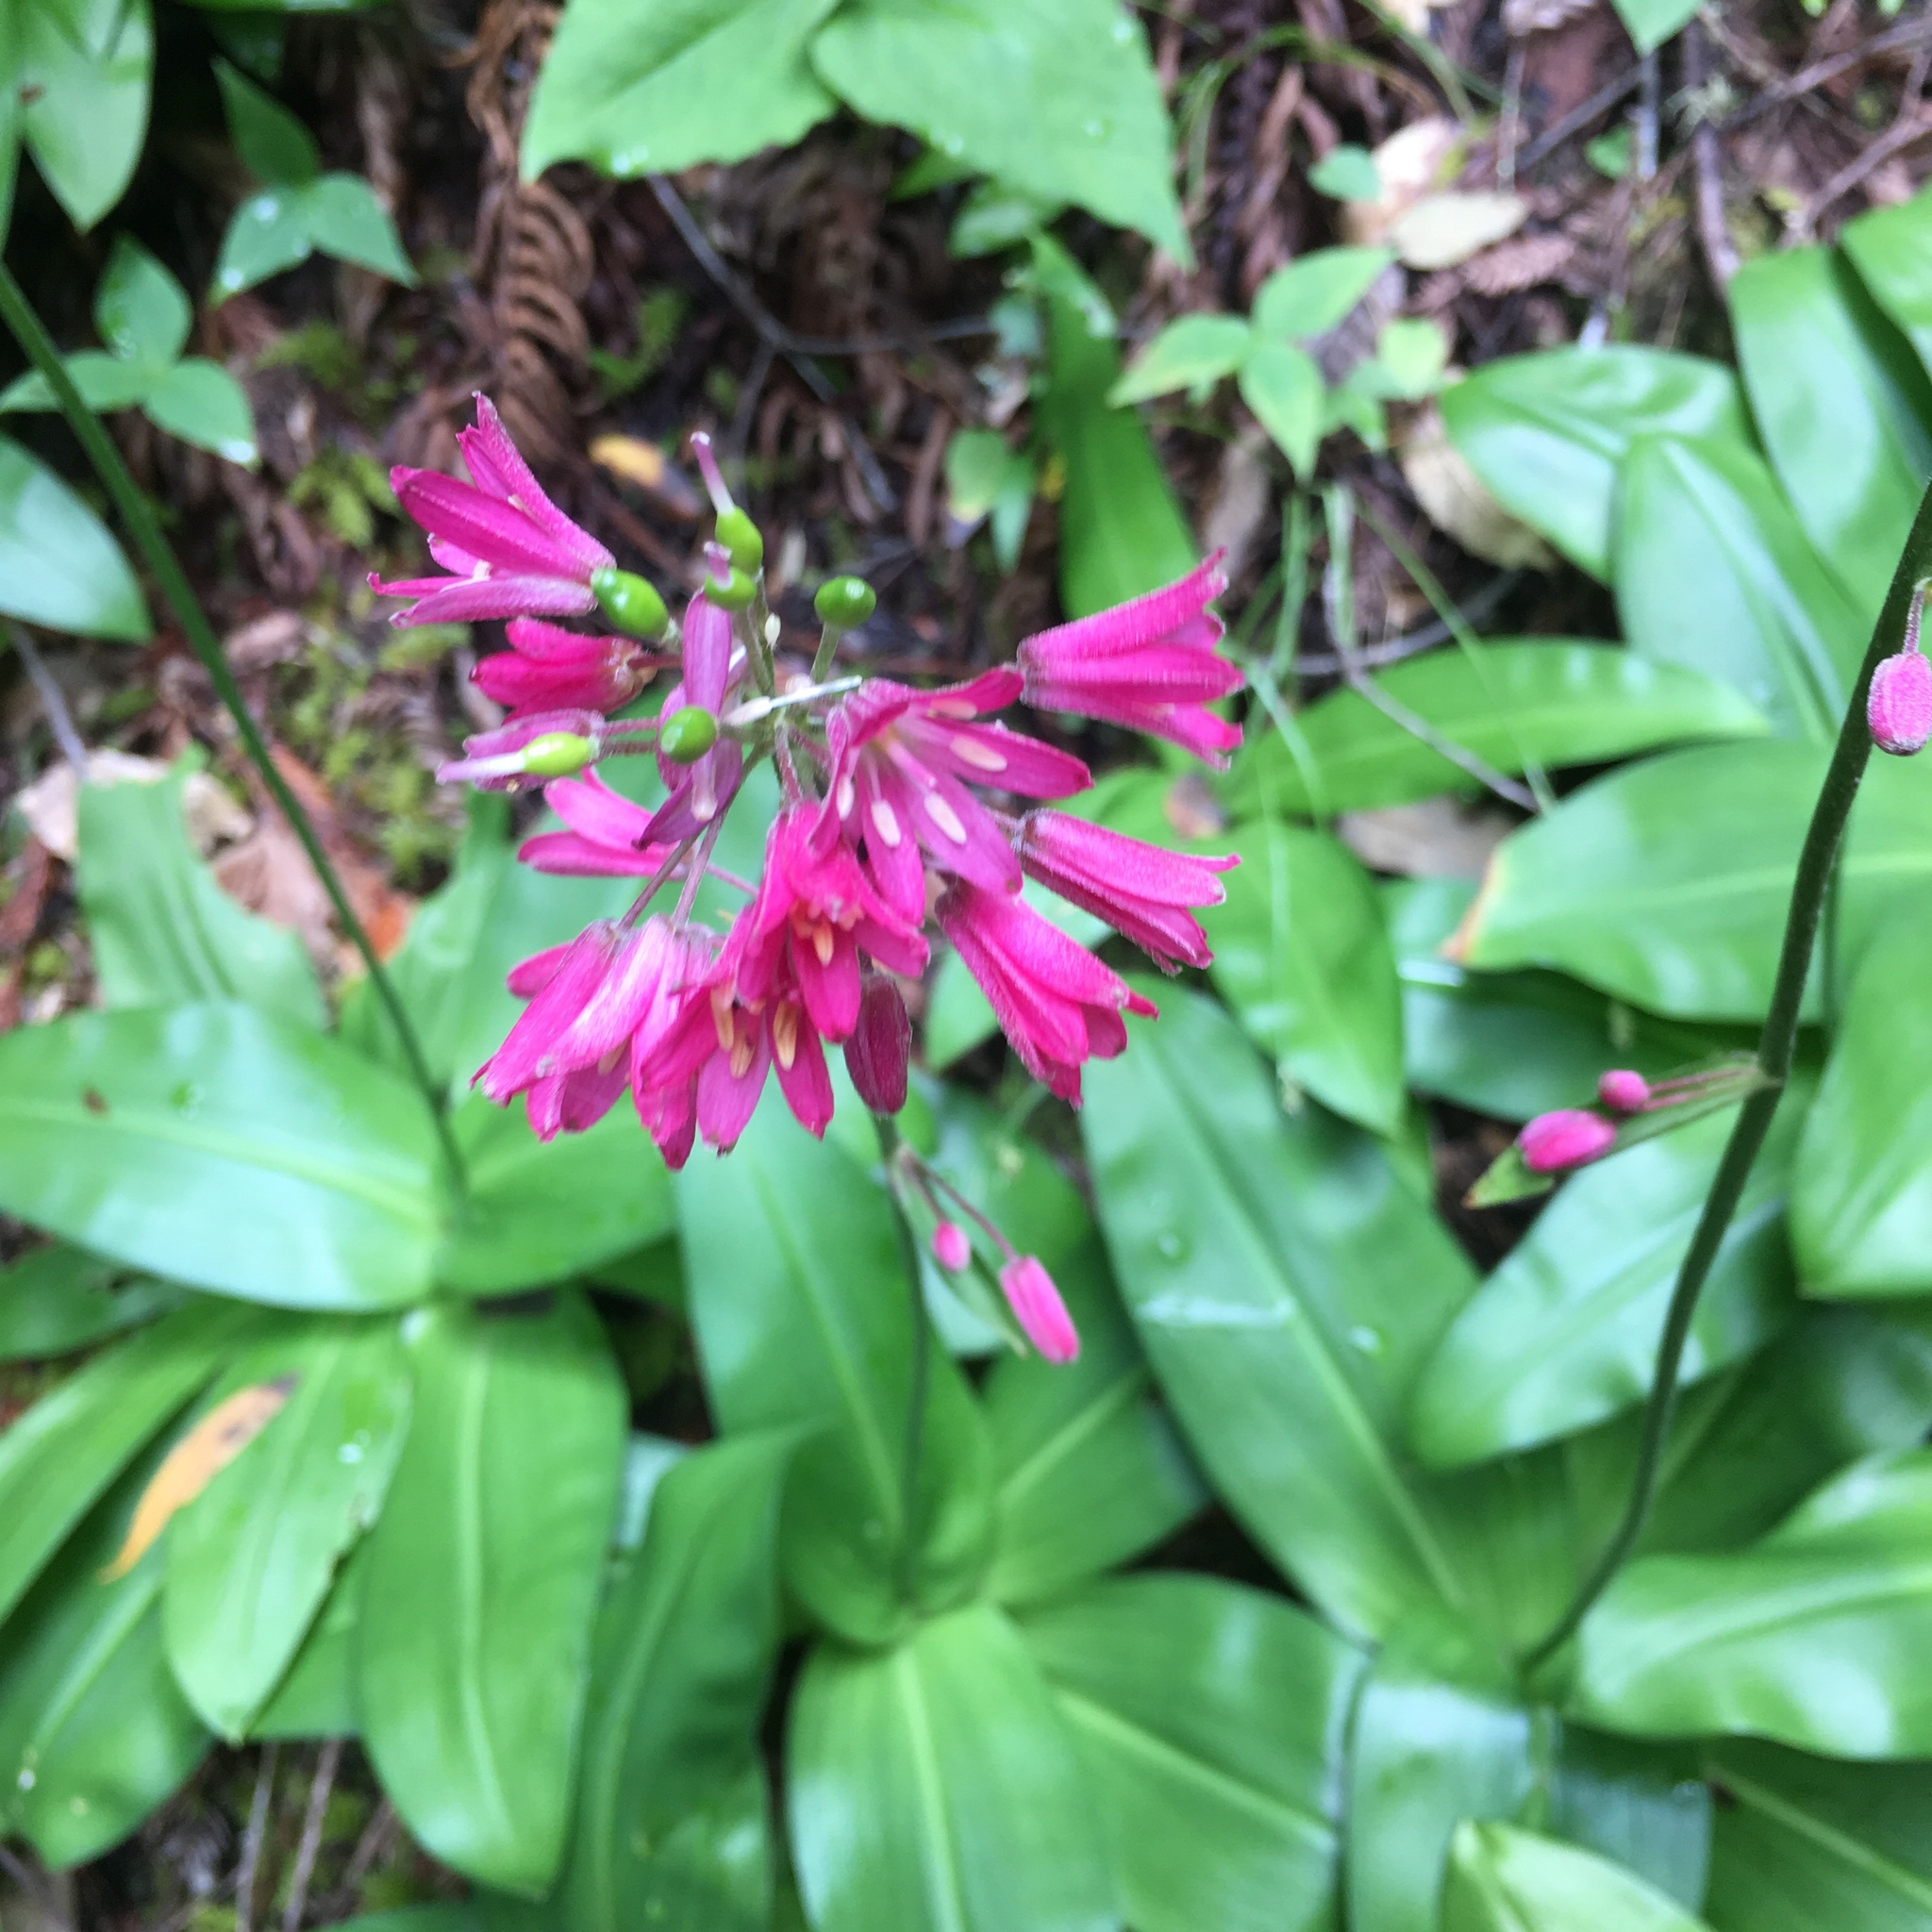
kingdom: Plantae
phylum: Tracheophyta
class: Liliopsida
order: Liliales
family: Liliaceae
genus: Clintonia
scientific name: Clintonia andrewsiana
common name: Red clintonia
